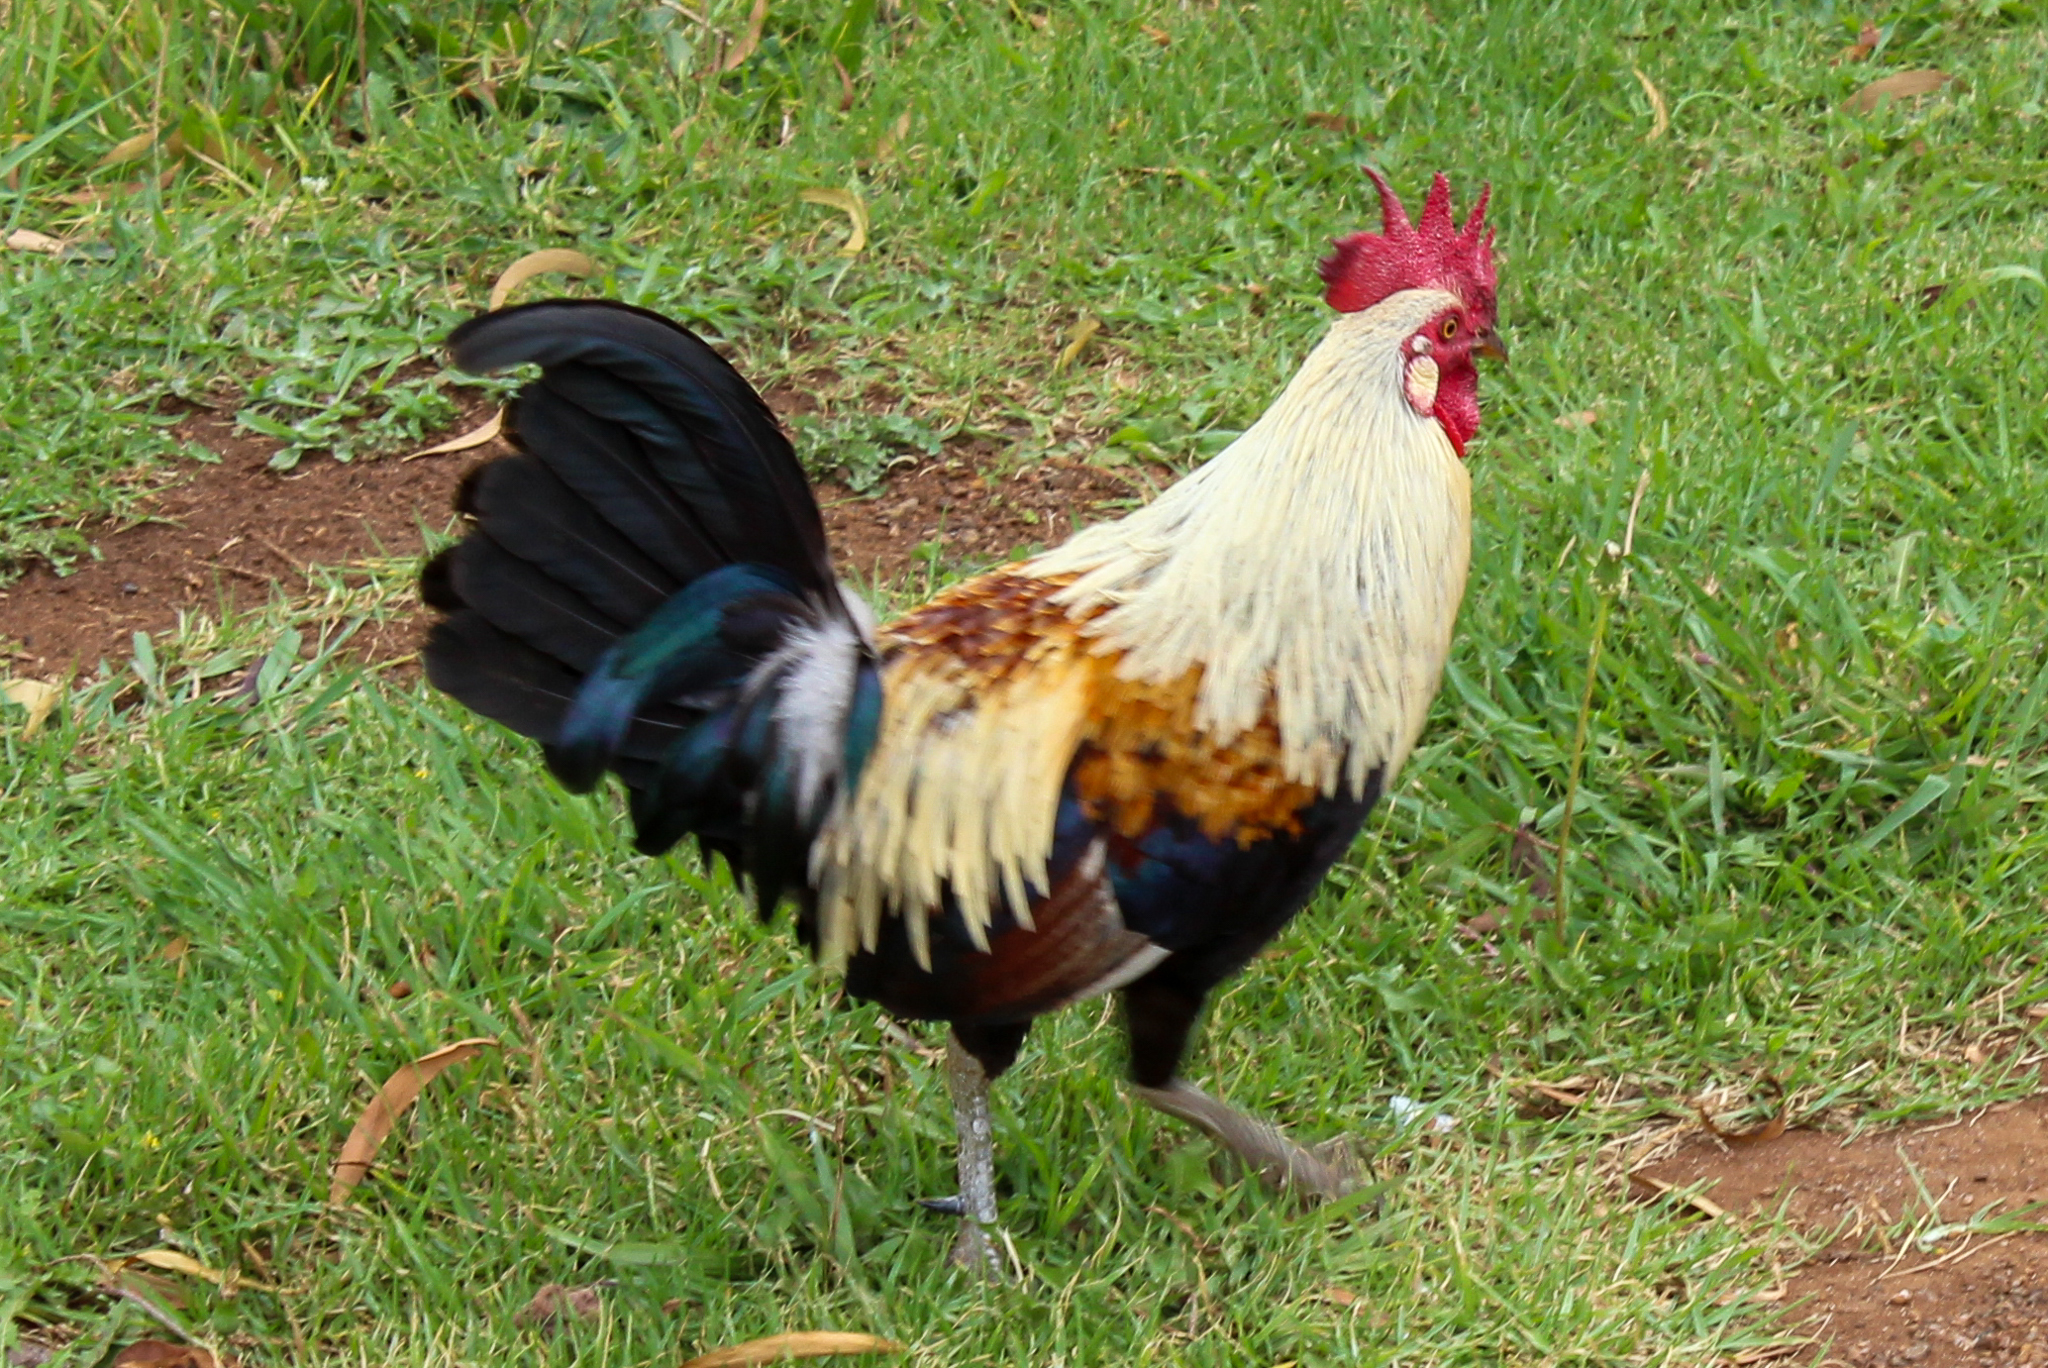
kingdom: Animalia
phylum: Chordata
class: Aves
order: Galliformes
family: Phasianidae
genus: Gallus
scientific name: Gallus gallus
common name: Red junglefowl
